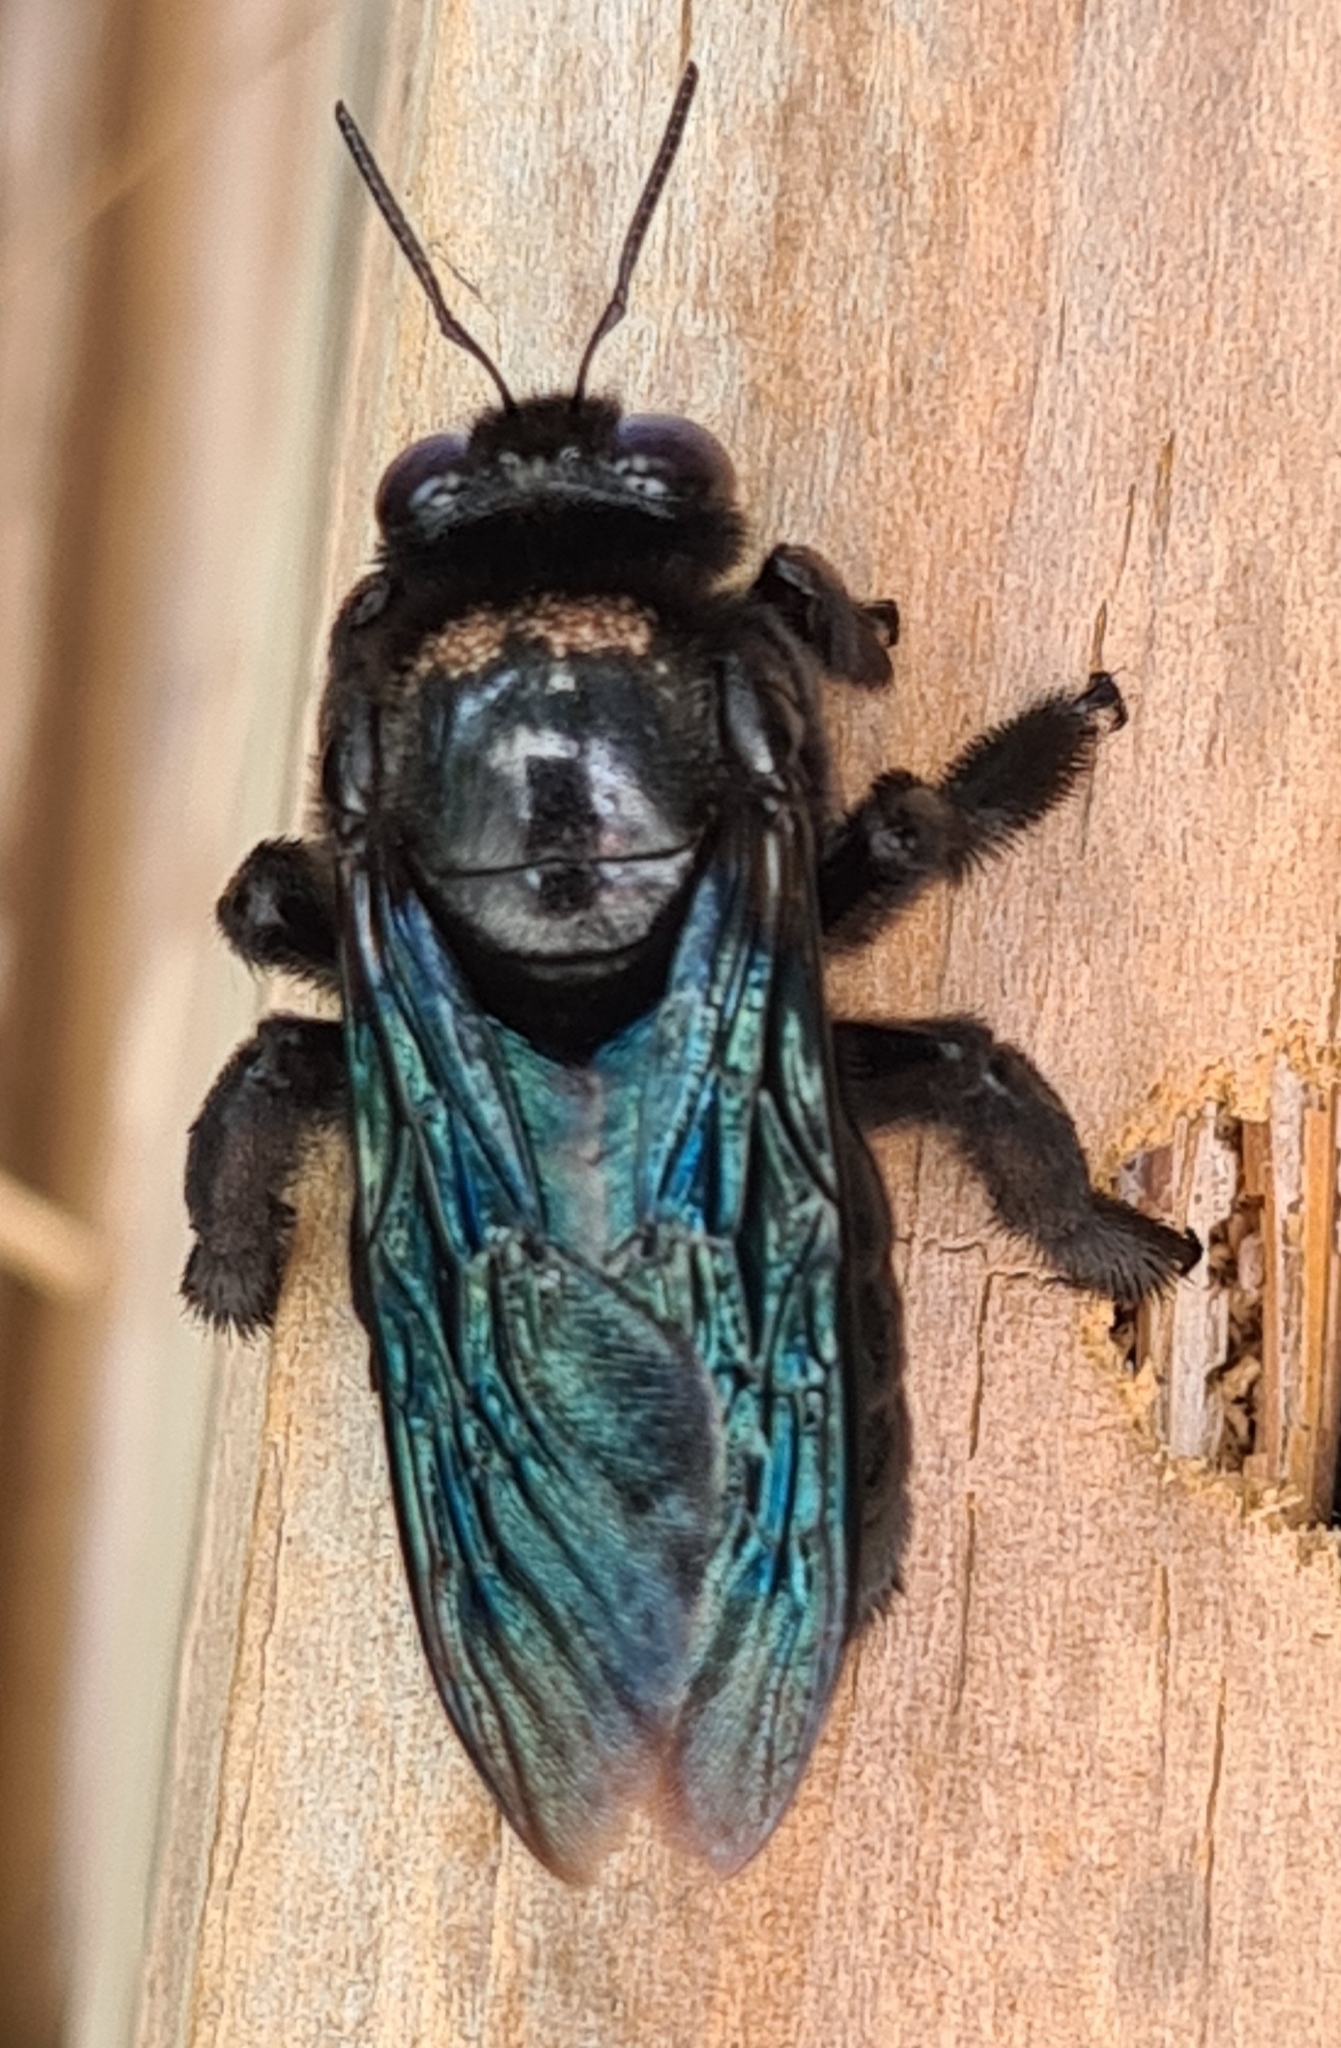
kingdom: Animalia
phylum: Arthropoda
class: Insecta
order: Hymenoptera
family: Apidae
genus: Xylocopa
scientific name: Xylocopa fenestrata
